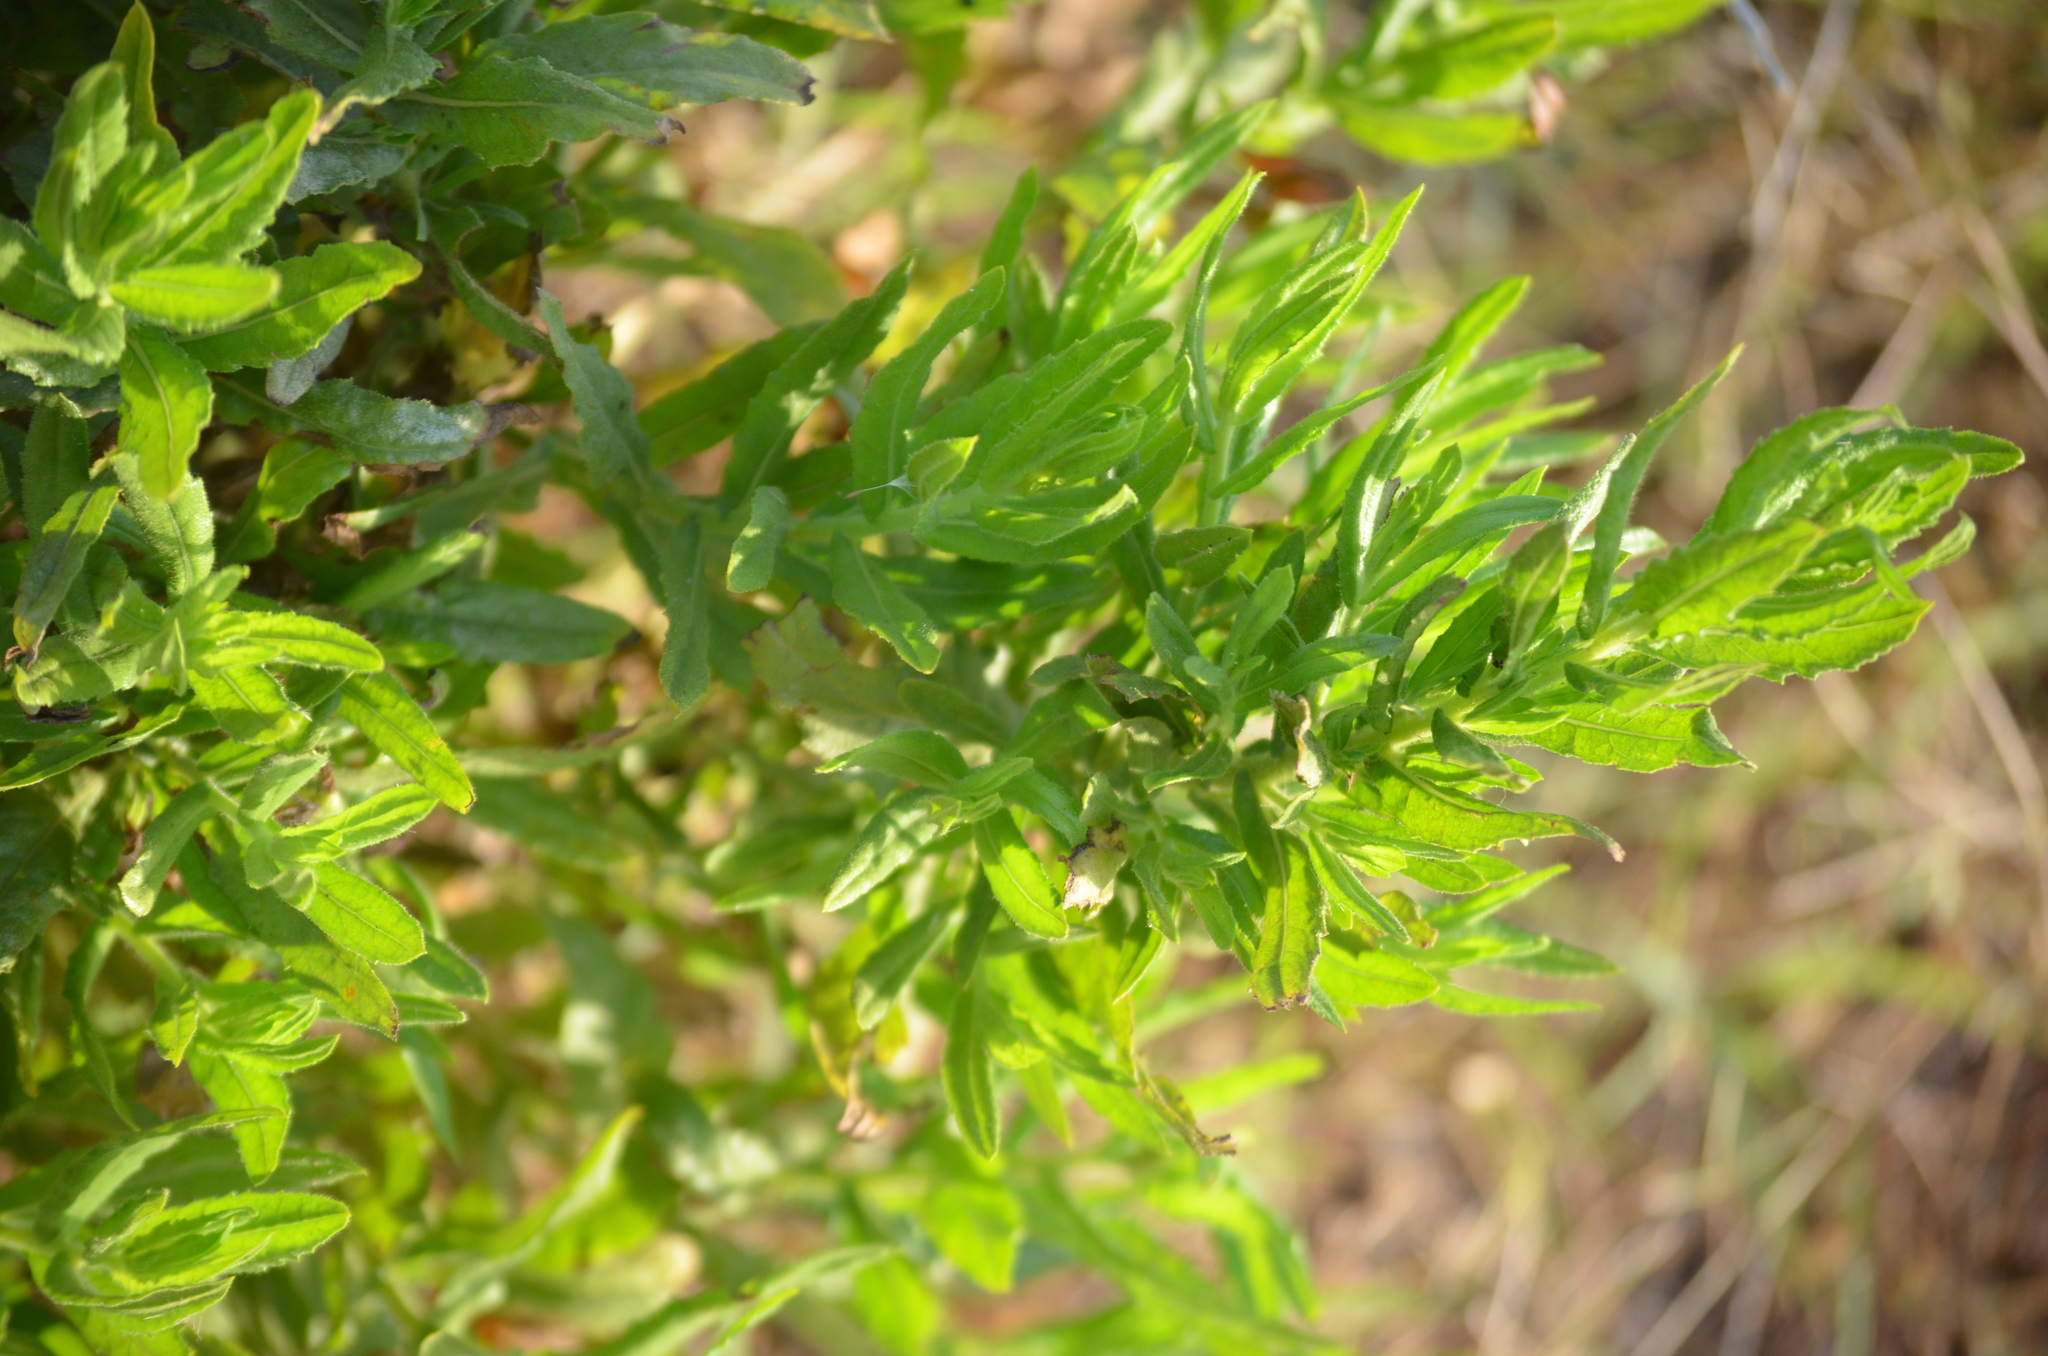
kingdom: Plantae
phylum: Tracheophyta
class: Magnoliopsida
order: Asterales
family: Asteraceae
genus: Dittrichia
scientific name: Dittrichia viscosa
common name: Woody fleabane
